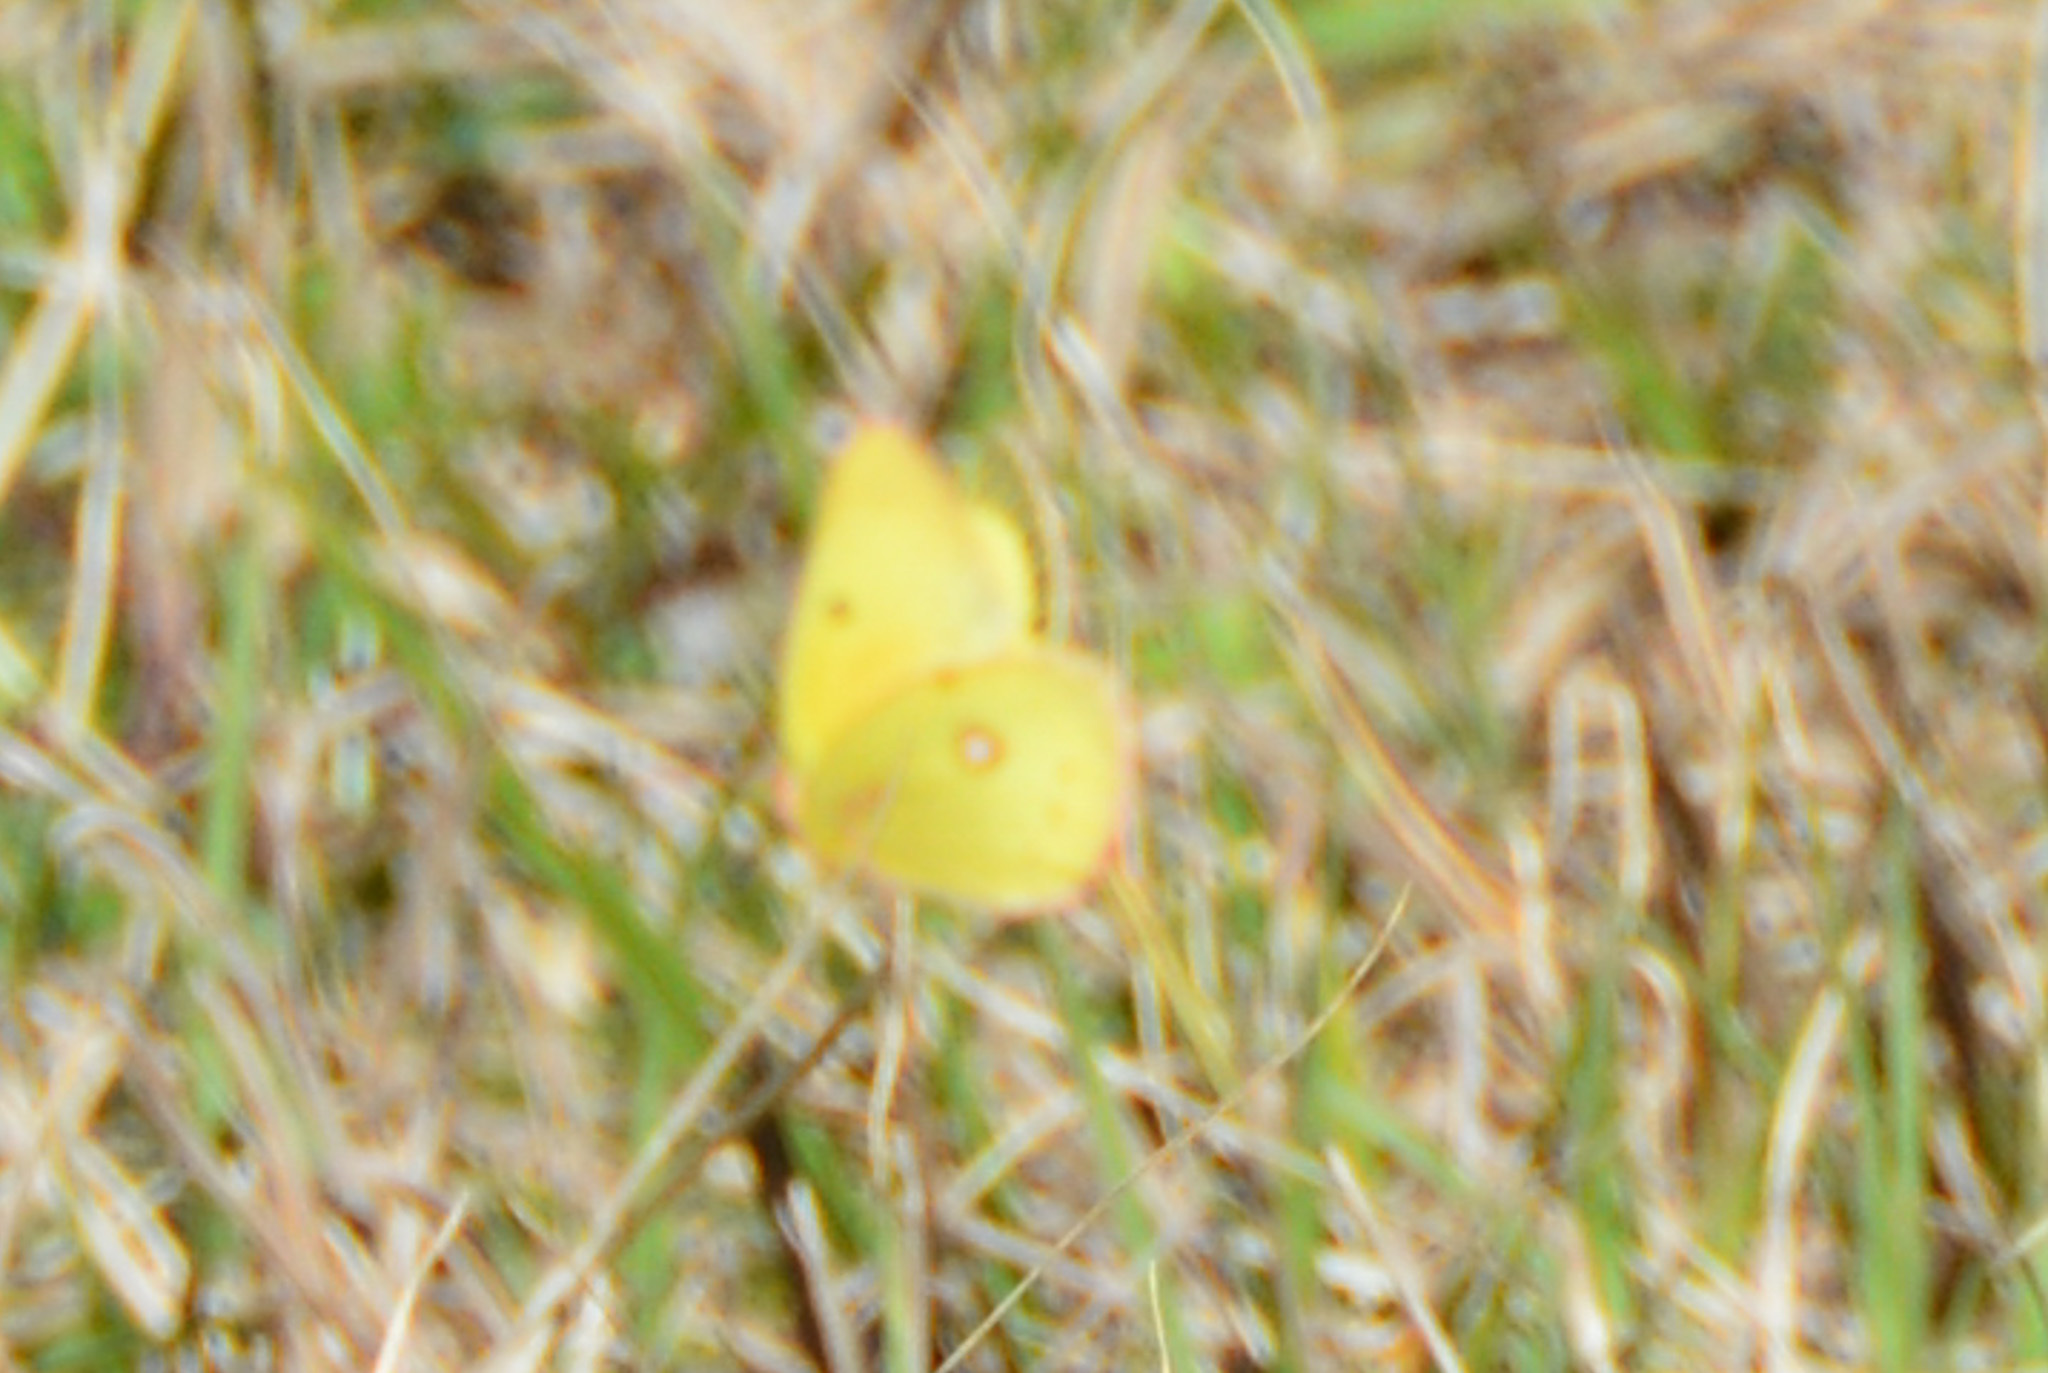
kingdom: Animalia
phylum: Arthropoda
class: Insecta
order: Lepidoptera
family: Pieridae
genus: Colias
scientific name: Colias eurytheme
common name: Alfalfa butterfly
